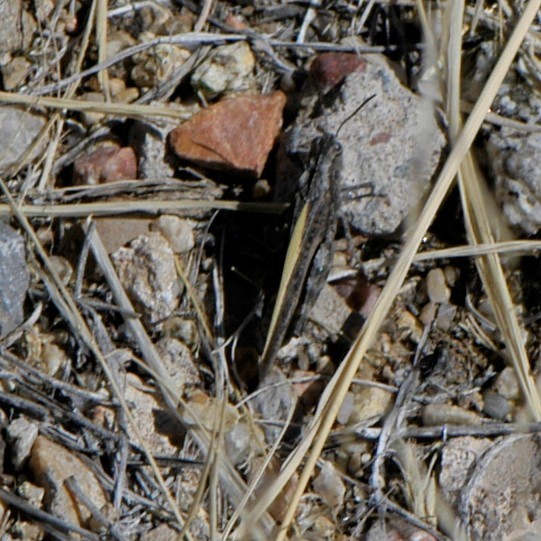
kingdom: Animalia
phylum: Arthropoda
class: Insecta
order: Orthoptera
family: Acrididae
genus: Arphia
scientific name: Arphia conspersa
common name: Speckle-winged rangeland grasshopper
